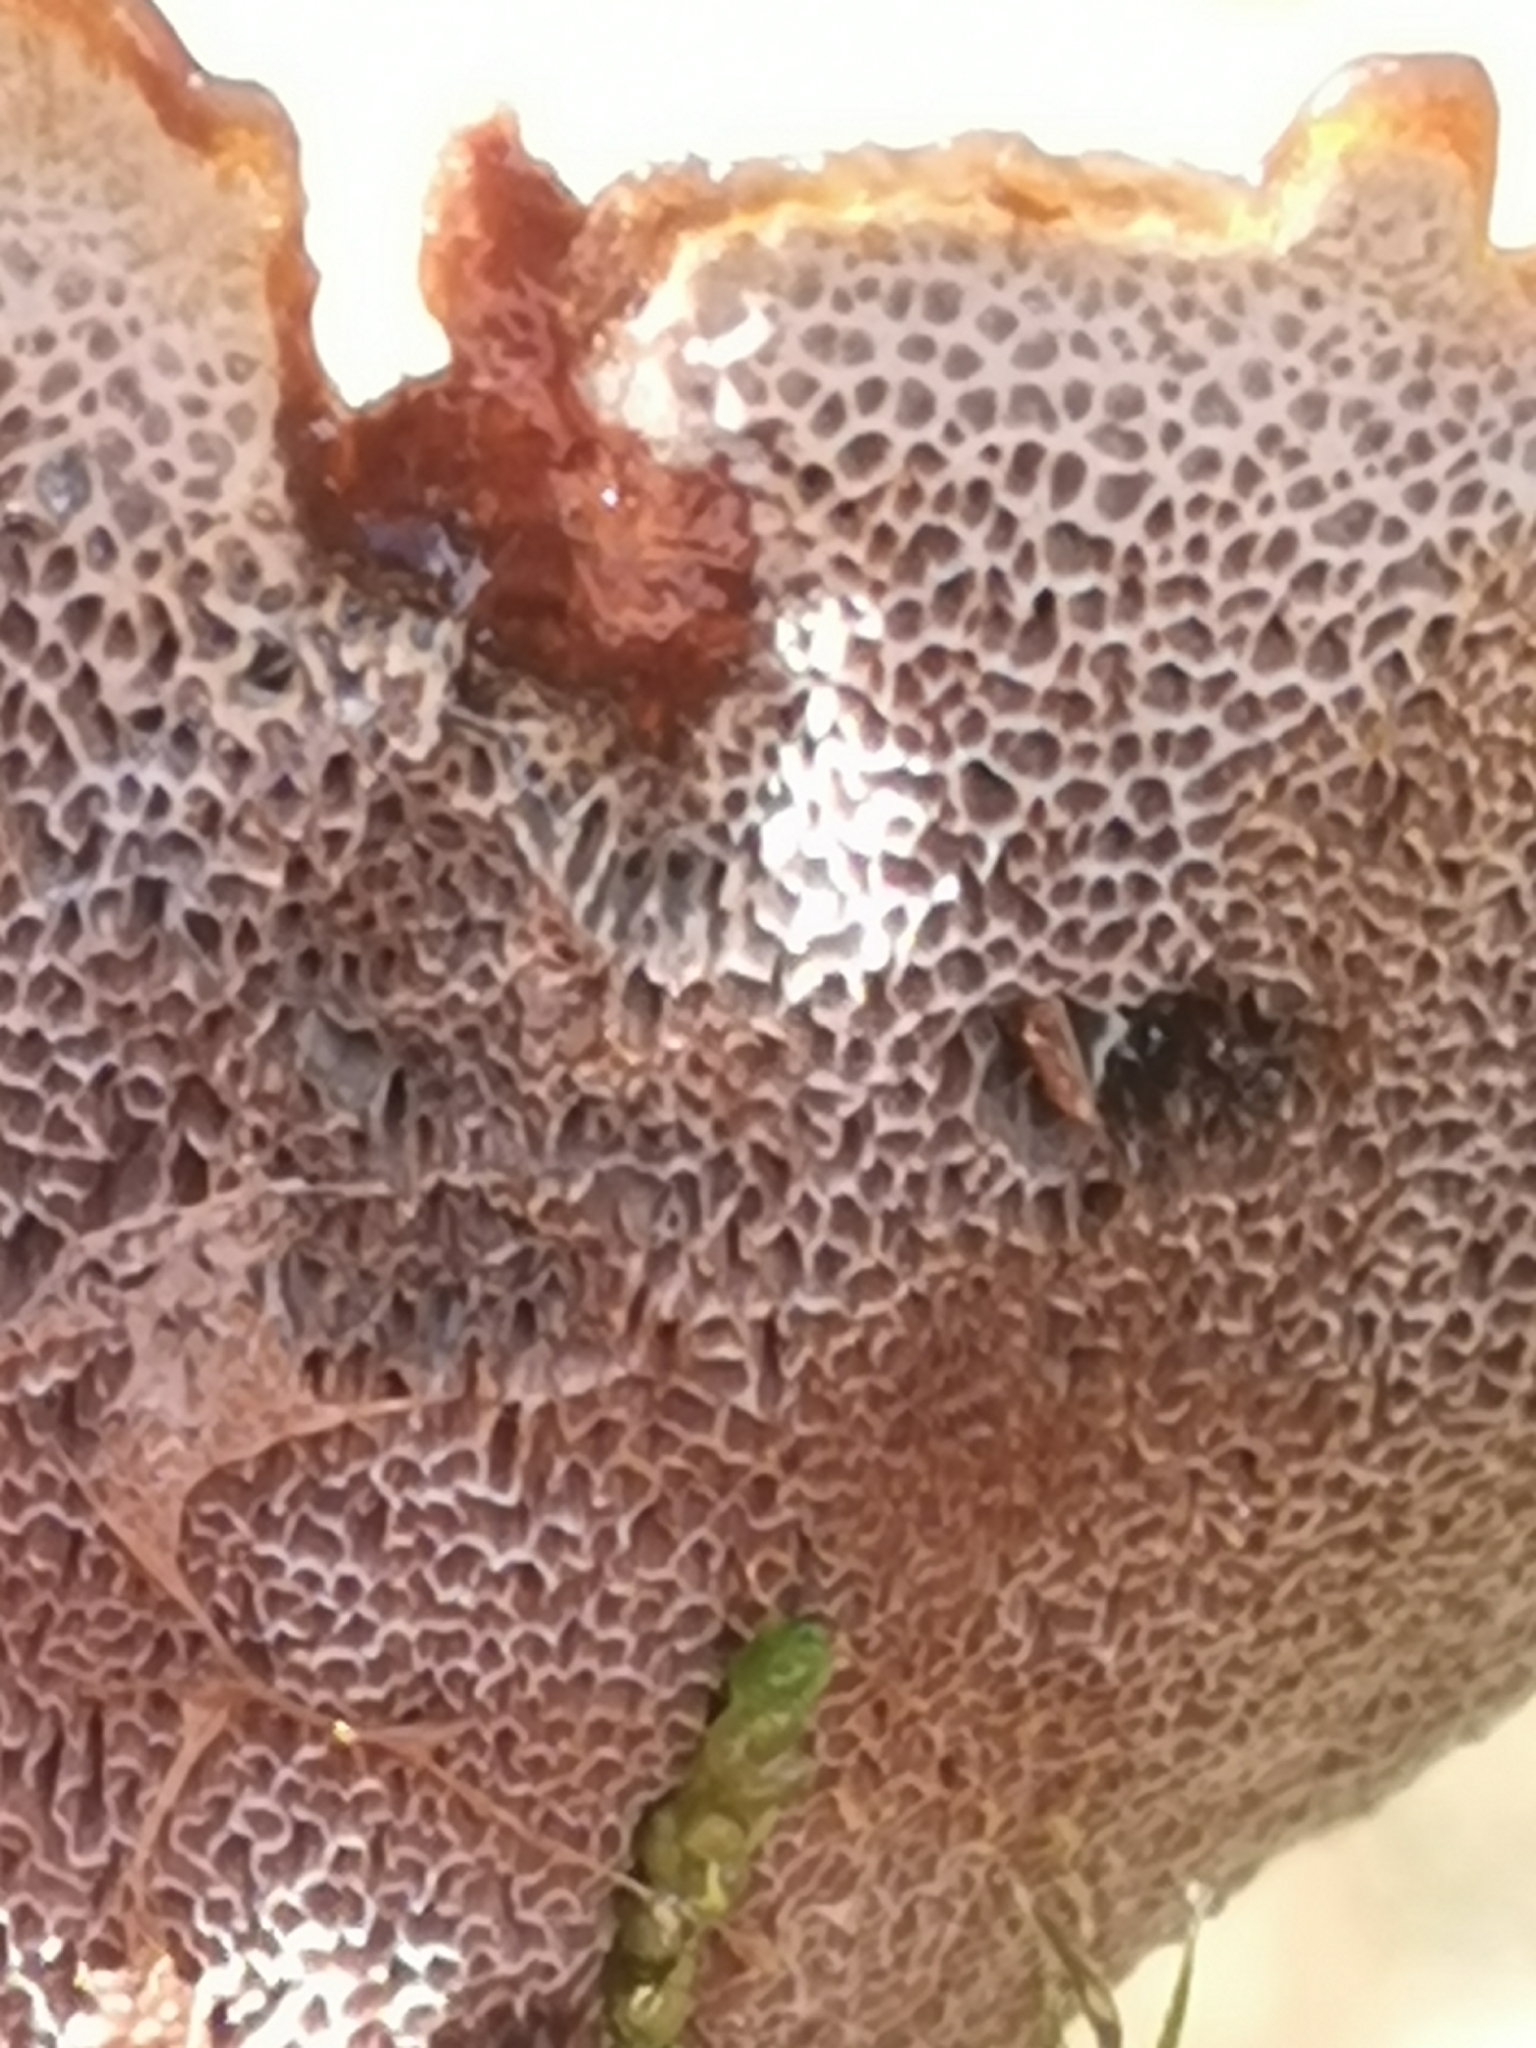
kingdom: Fungi
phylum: Basidiomycota
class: Agaricomycetes
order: Hymenochaetales
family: Hymenochaetaceae
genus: Coltricia
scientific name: Coltricia perennis
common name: Tiger's eye
